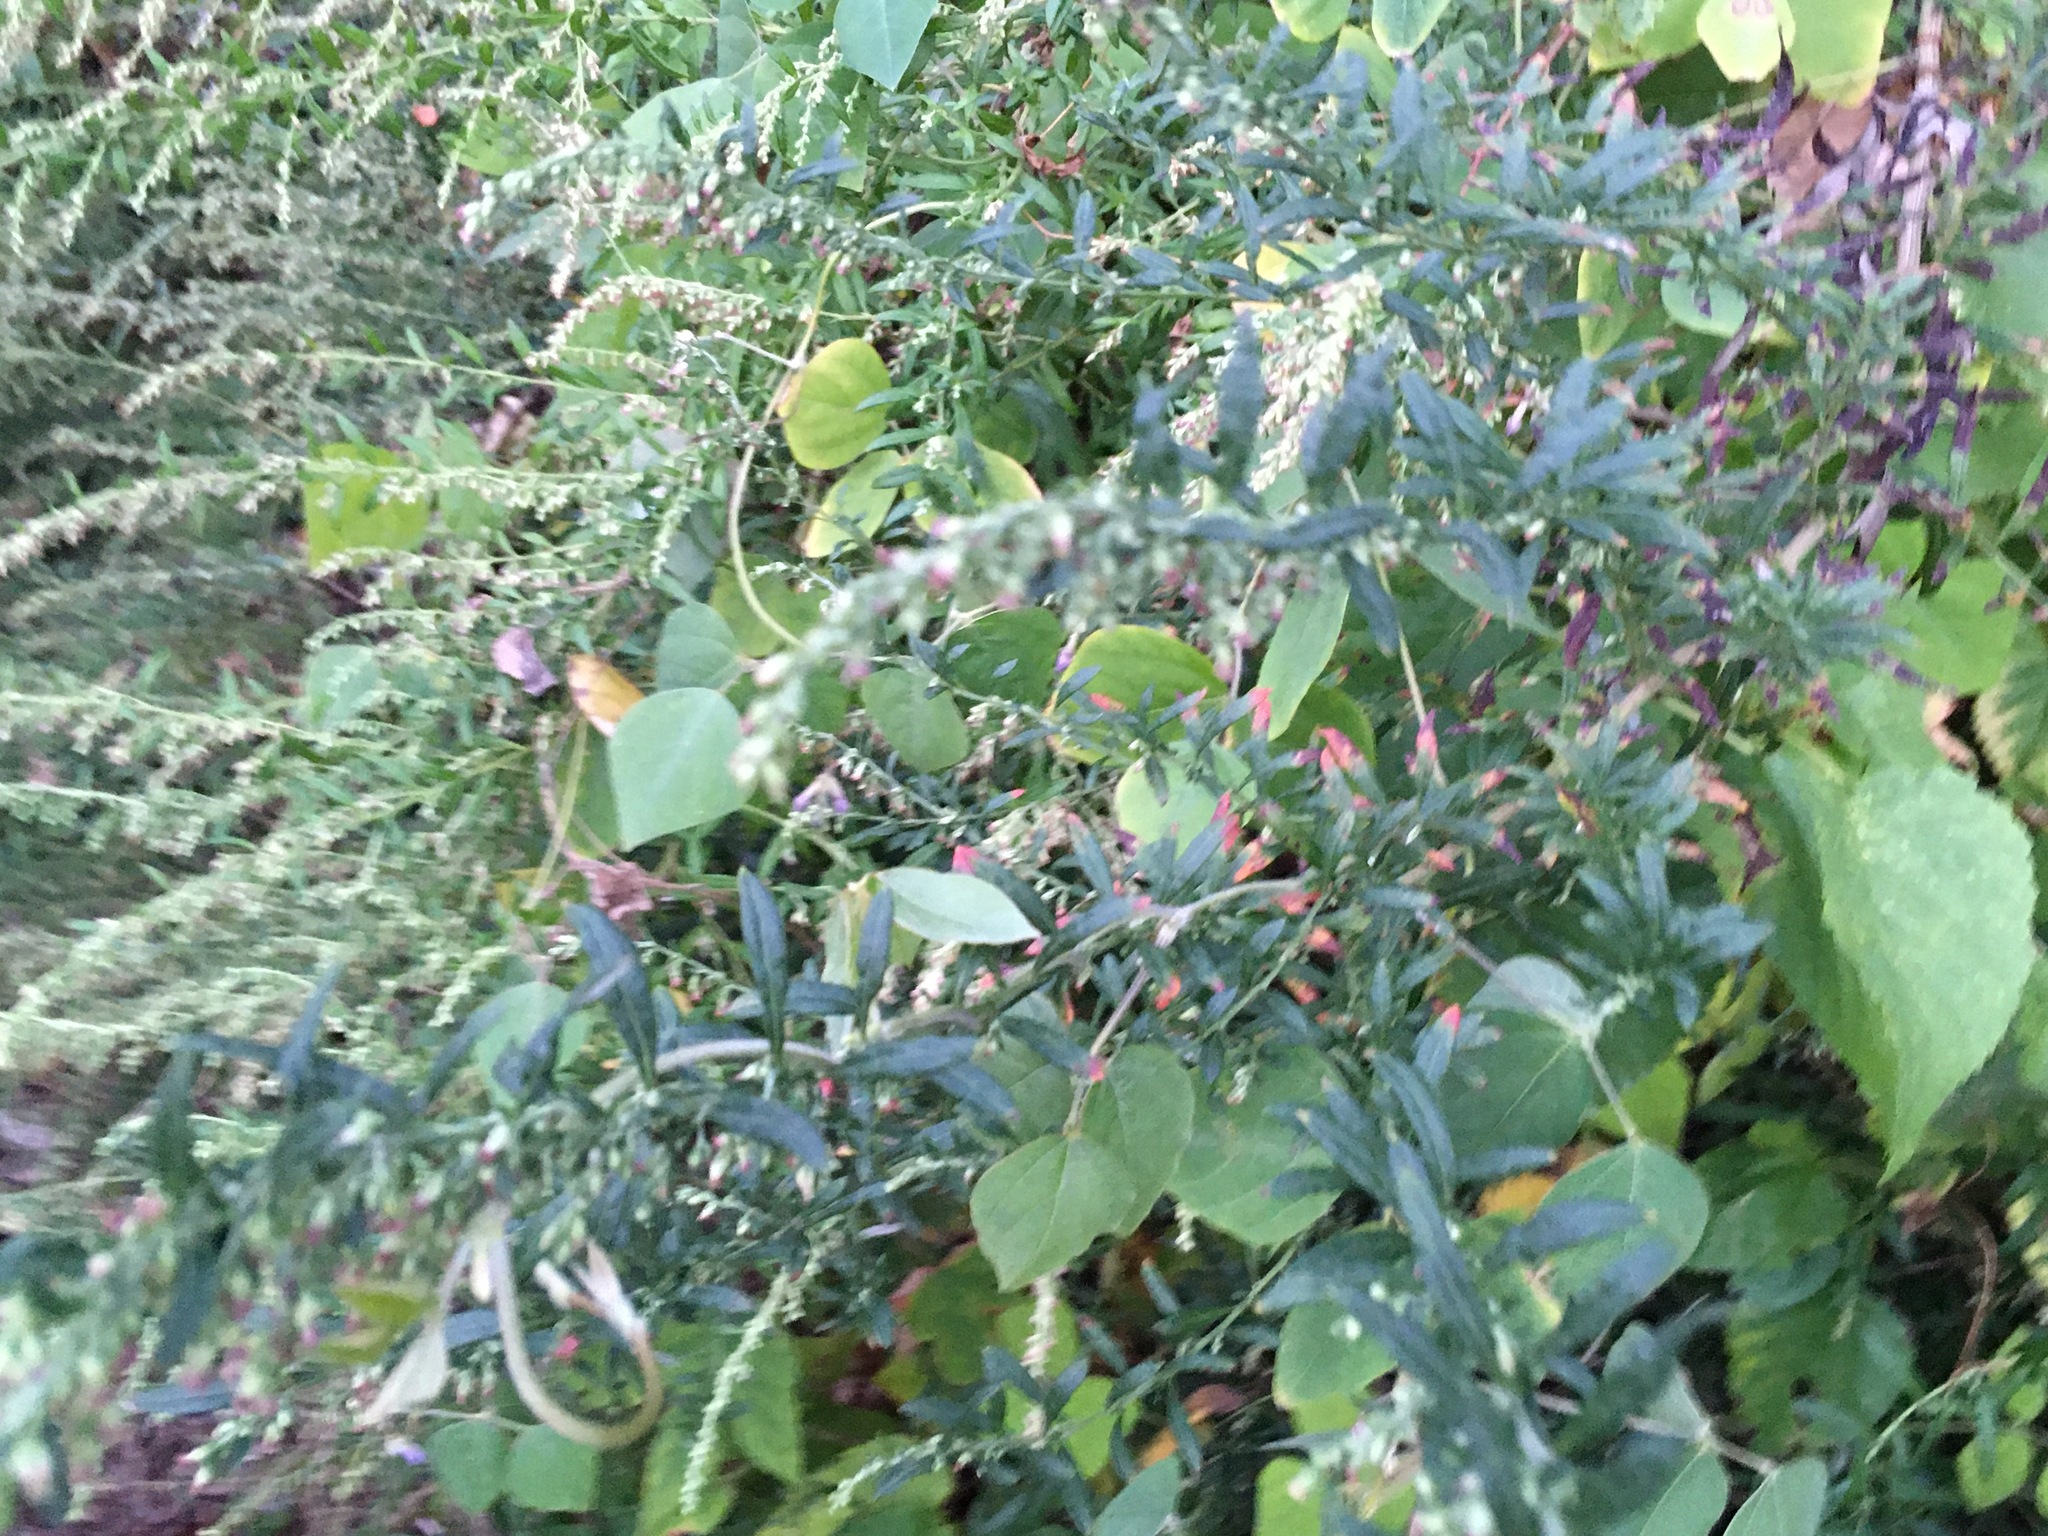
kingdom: Plantae
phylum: Tracheophyta
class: Magnoliopsida
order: Asterales
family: Asteraceae
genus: Artemisia
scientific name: Artemisia vulgaris
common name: Mugwort
